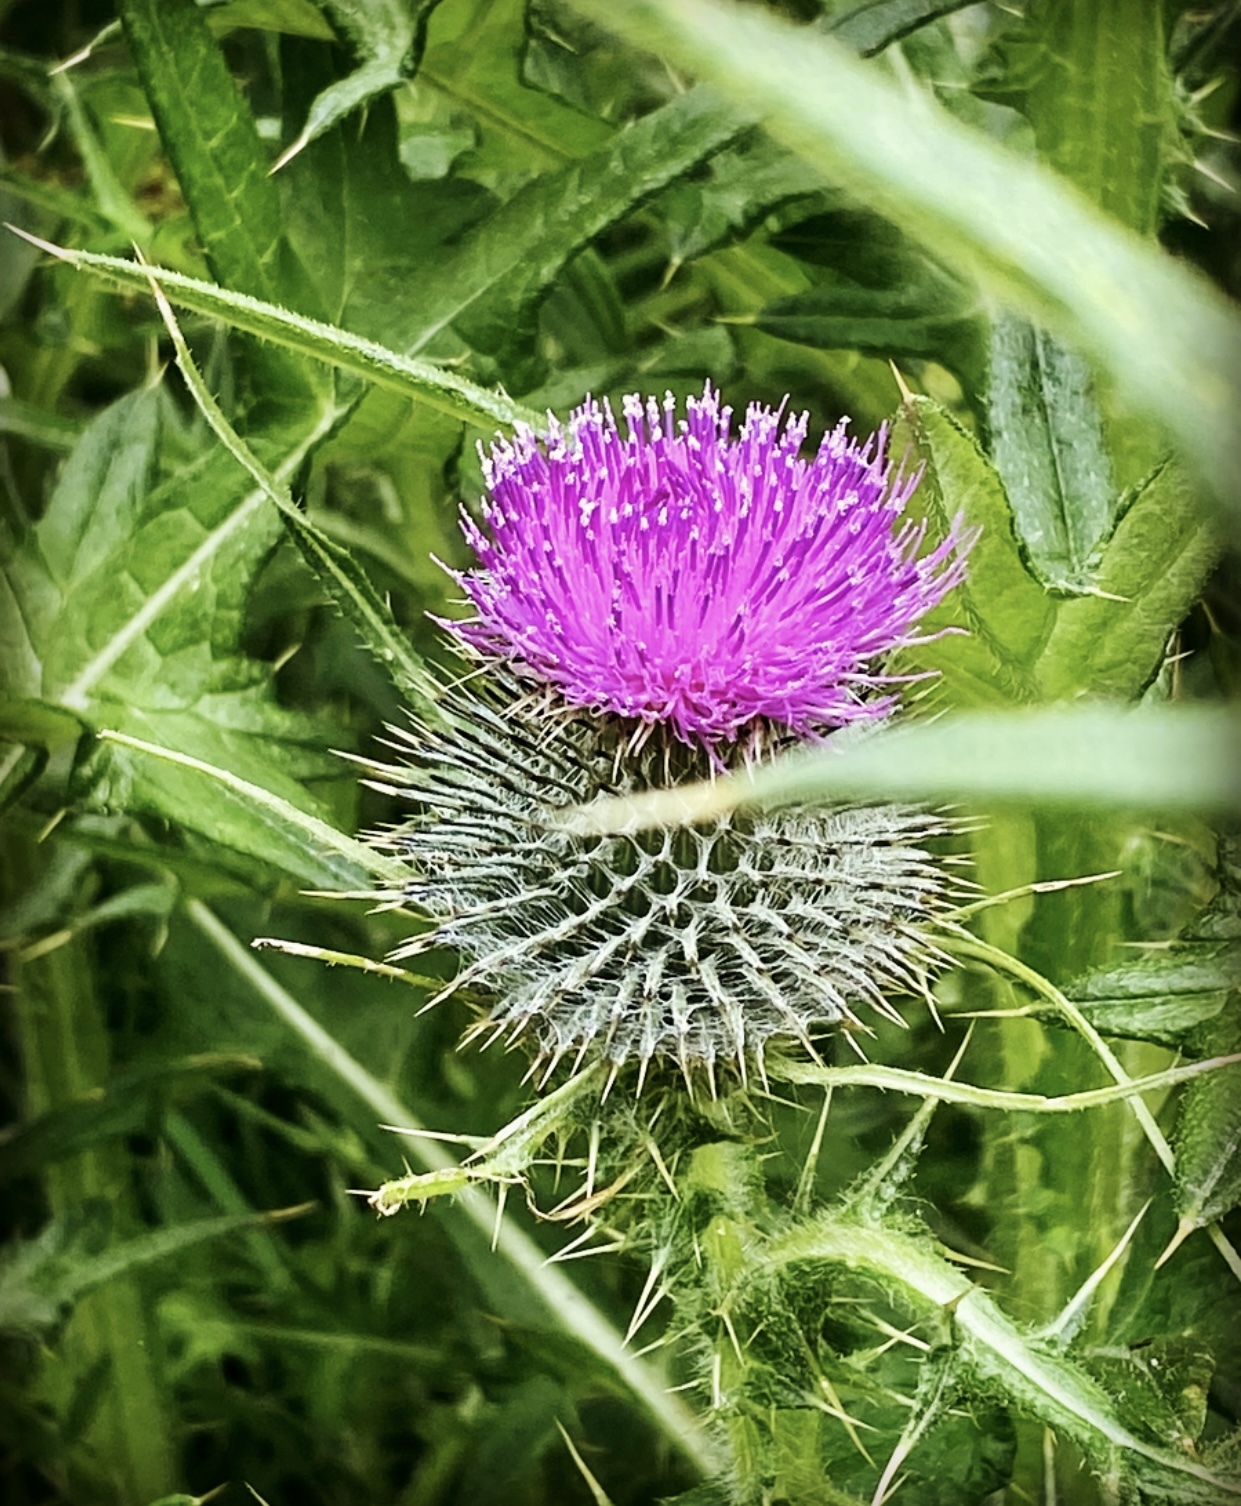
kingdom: Plantae
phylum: Tracheophyta
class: Magnoliopsida
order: Asterales
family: Asteraceae
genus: Cirsium
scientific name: Cirsium vulgare
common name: Bull thistle
